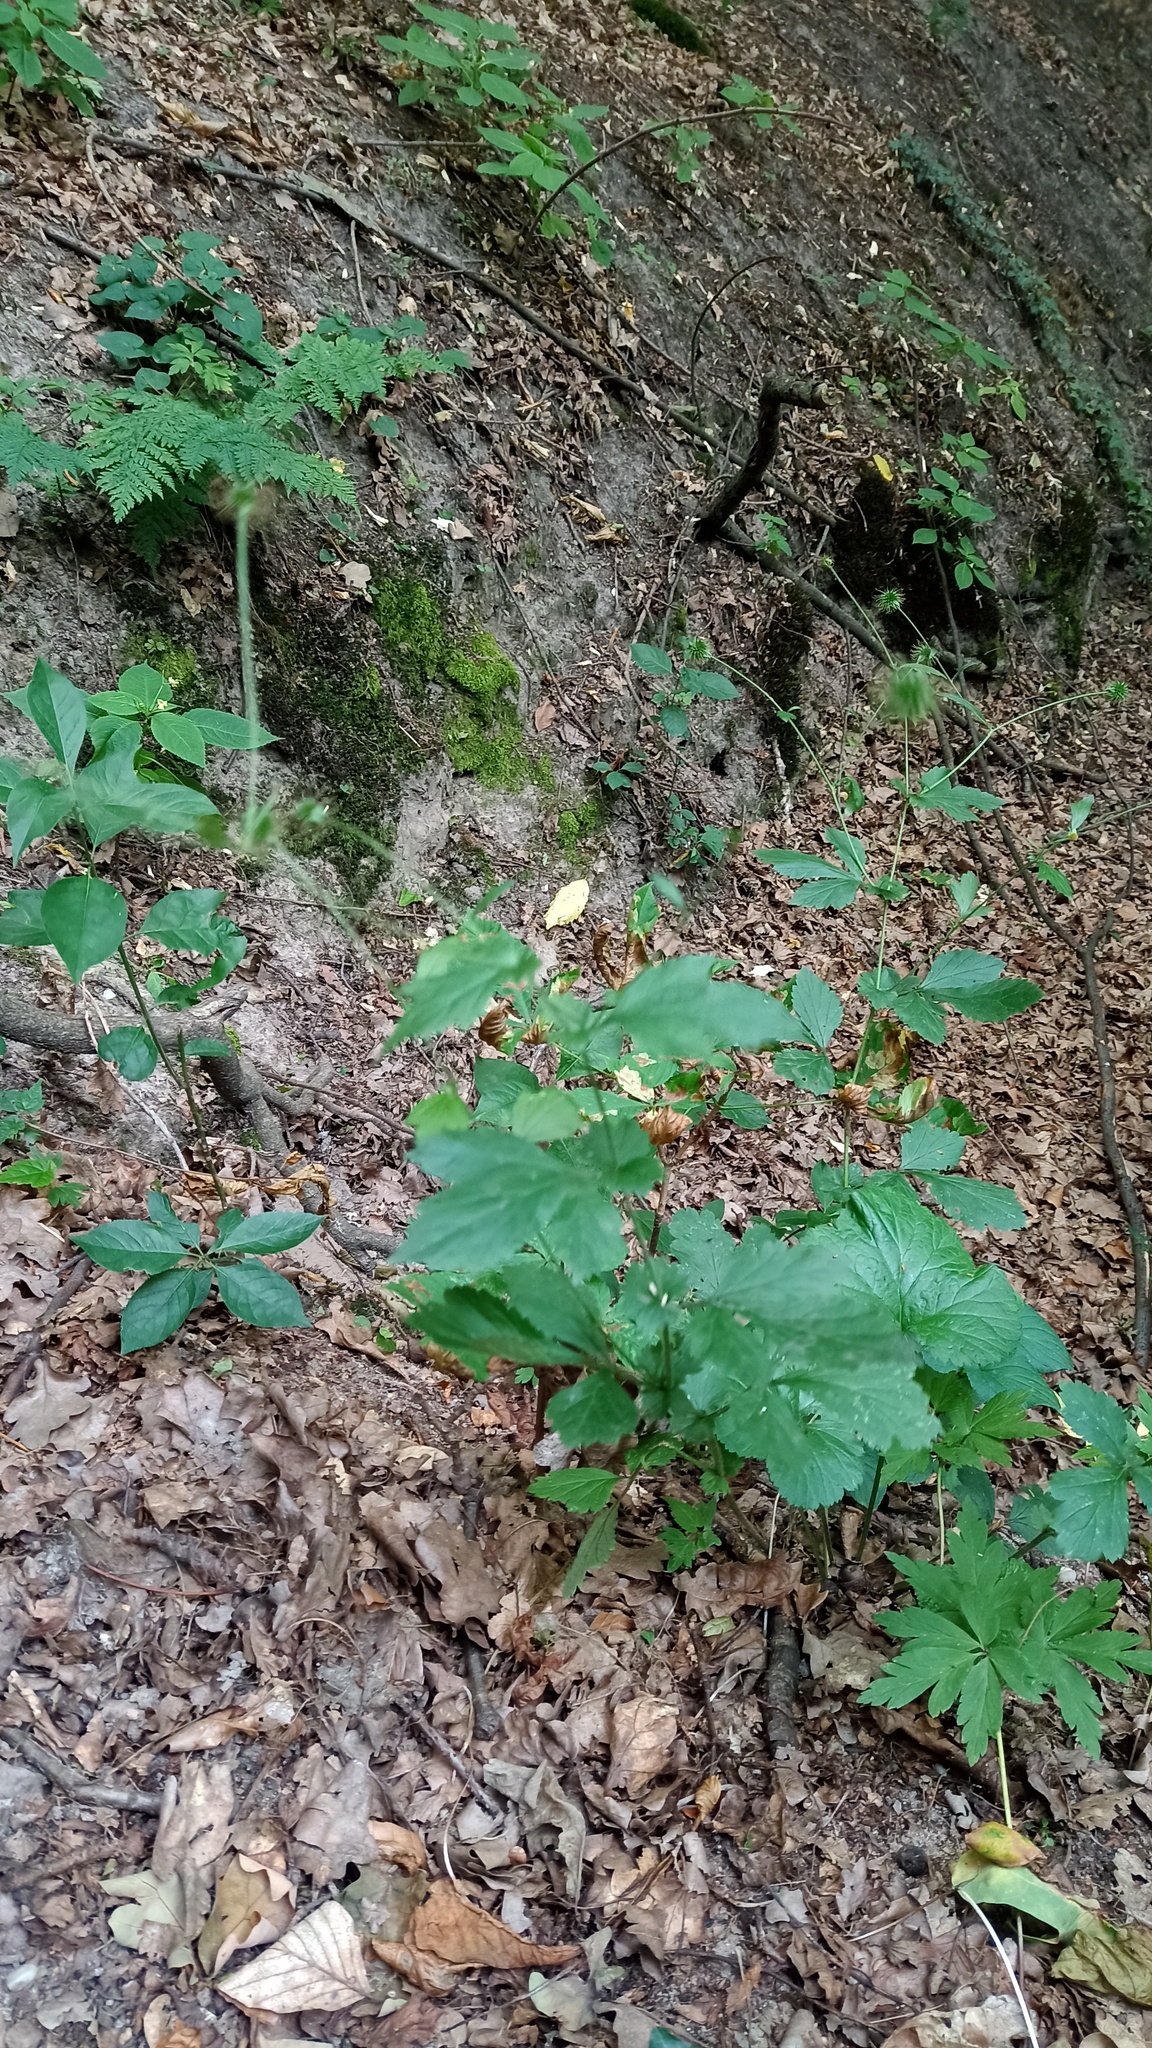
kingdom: Plantae
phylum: Tracheophyta
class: Magnoliopsida
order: Rosales
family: Rosaceae
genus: Geum
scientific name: Geum urbanum
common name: Wood avens
